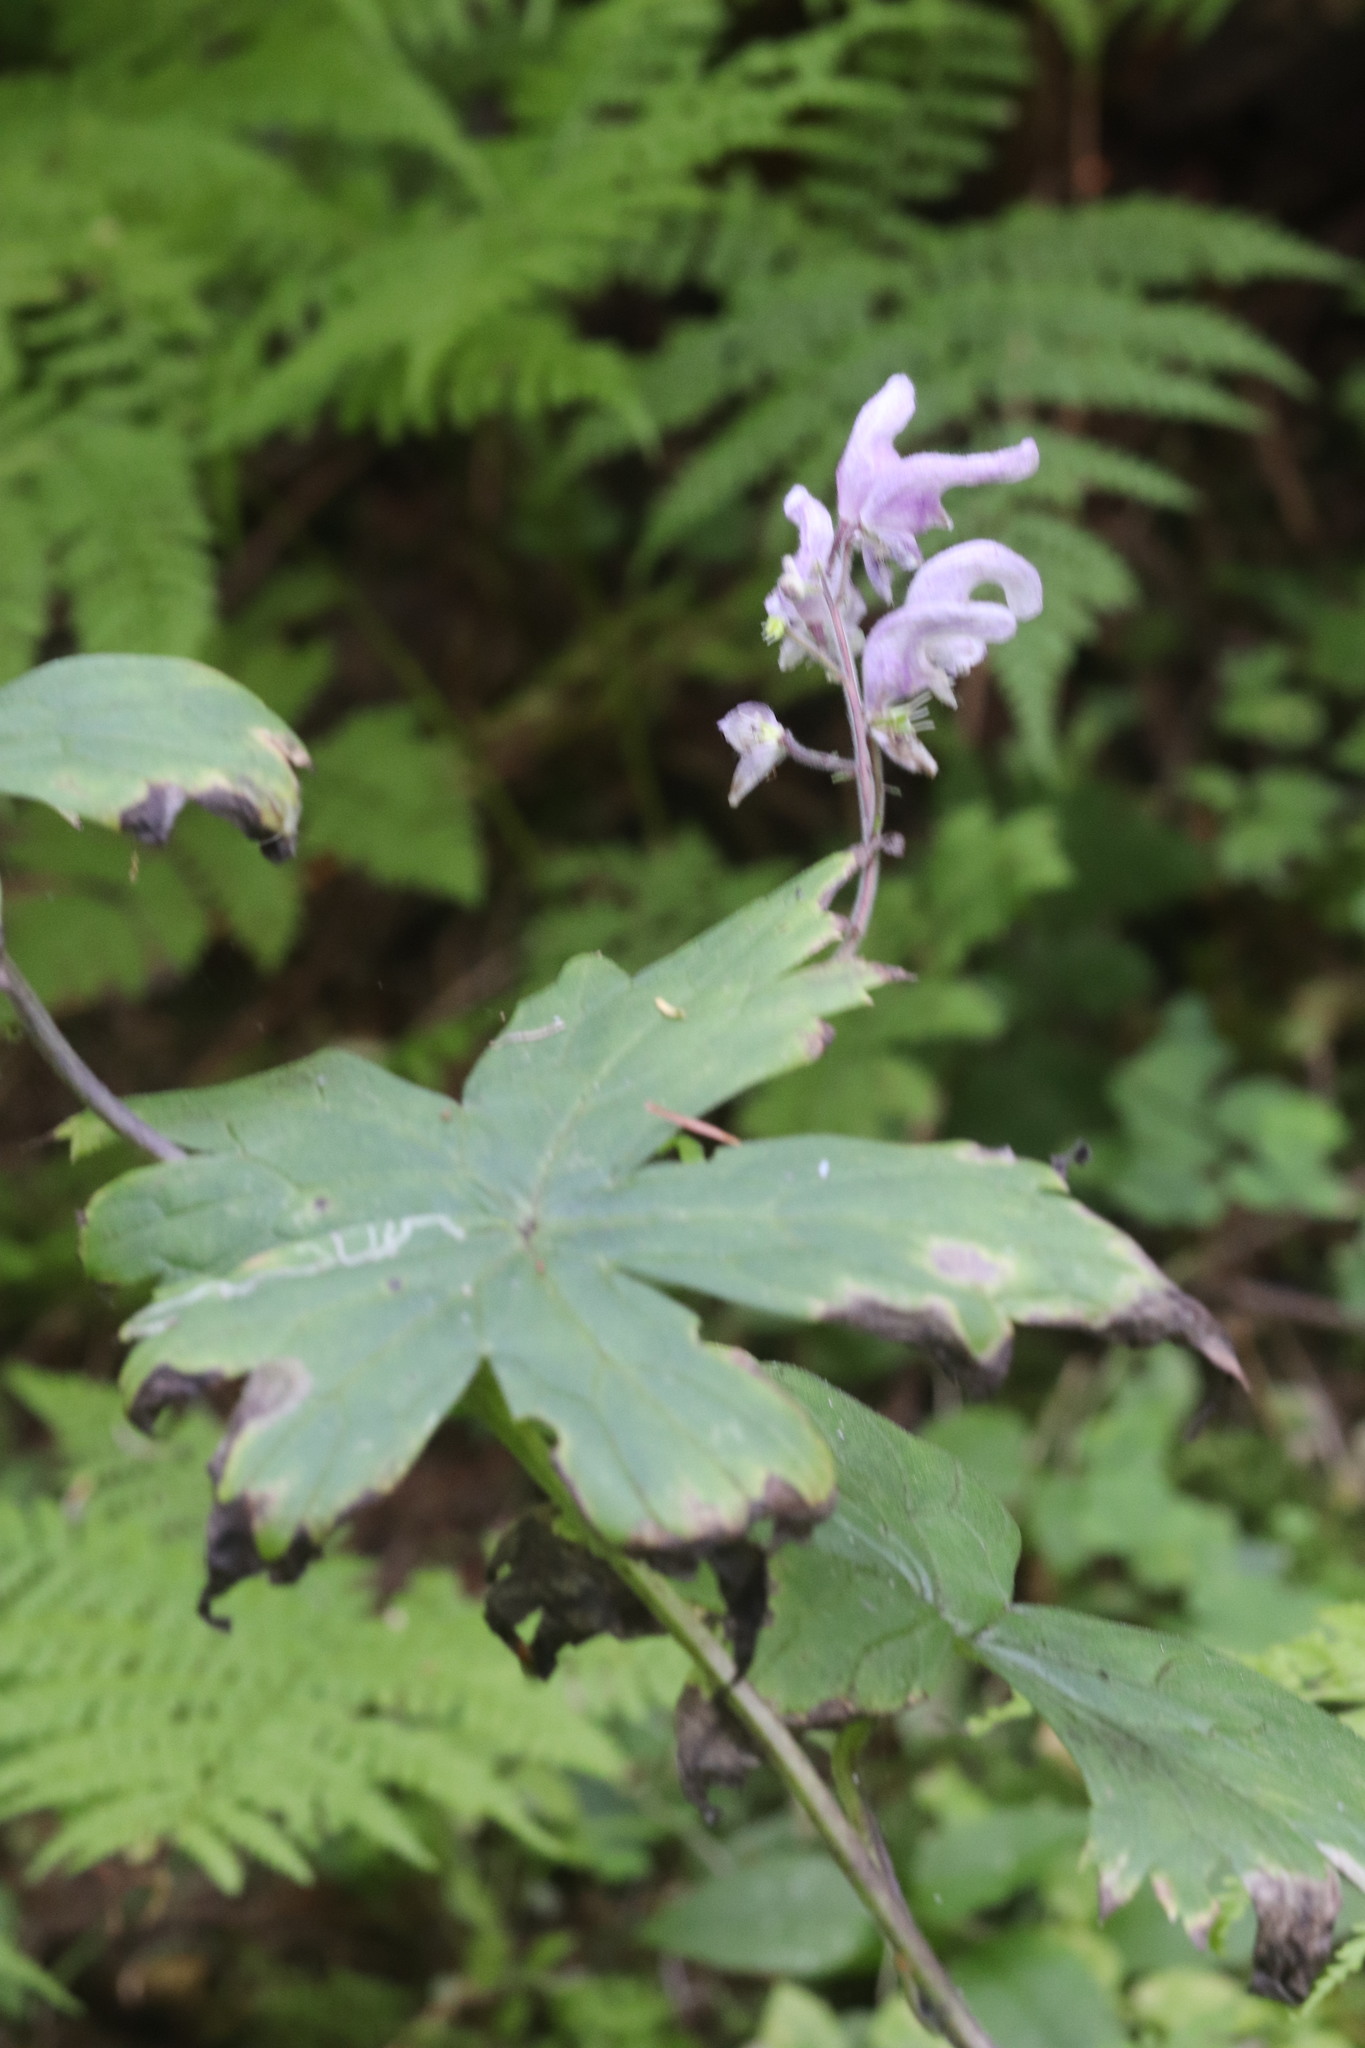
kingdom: Plantae
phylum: Tracheophyta
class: Magnoliopsida
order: Ranunculales
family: Ranunculaceae
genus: Aconitum
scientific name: Aconitum septentrionale
